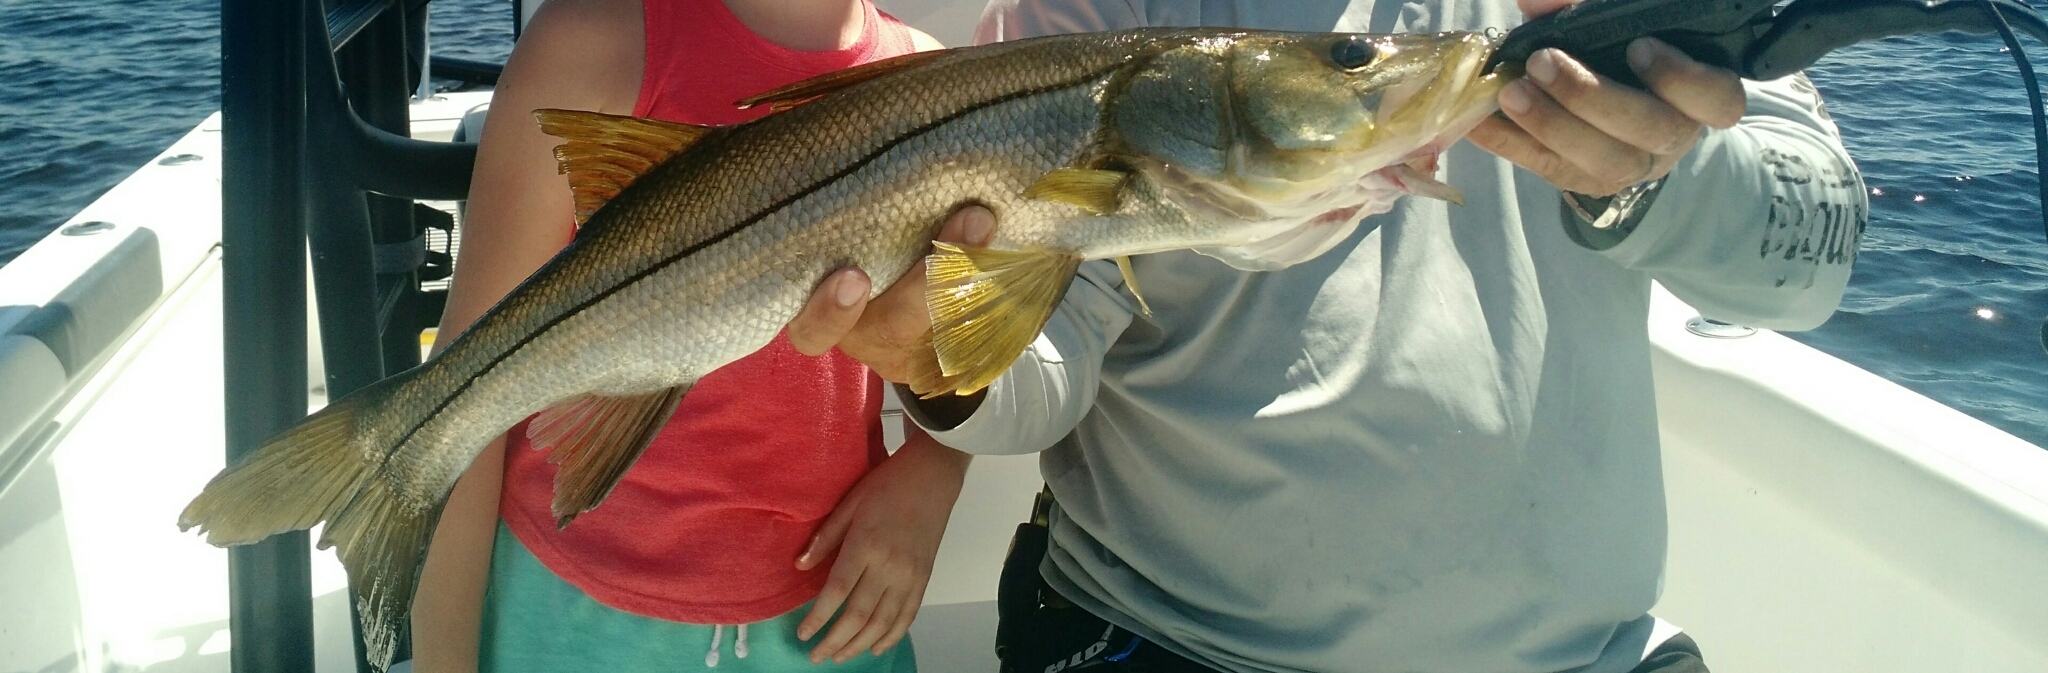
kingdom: Animalia
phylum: Chordata
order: Perciformes
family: Centropomidae
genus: Centropomus
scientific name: Centropomus undecimalis
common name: Snook
